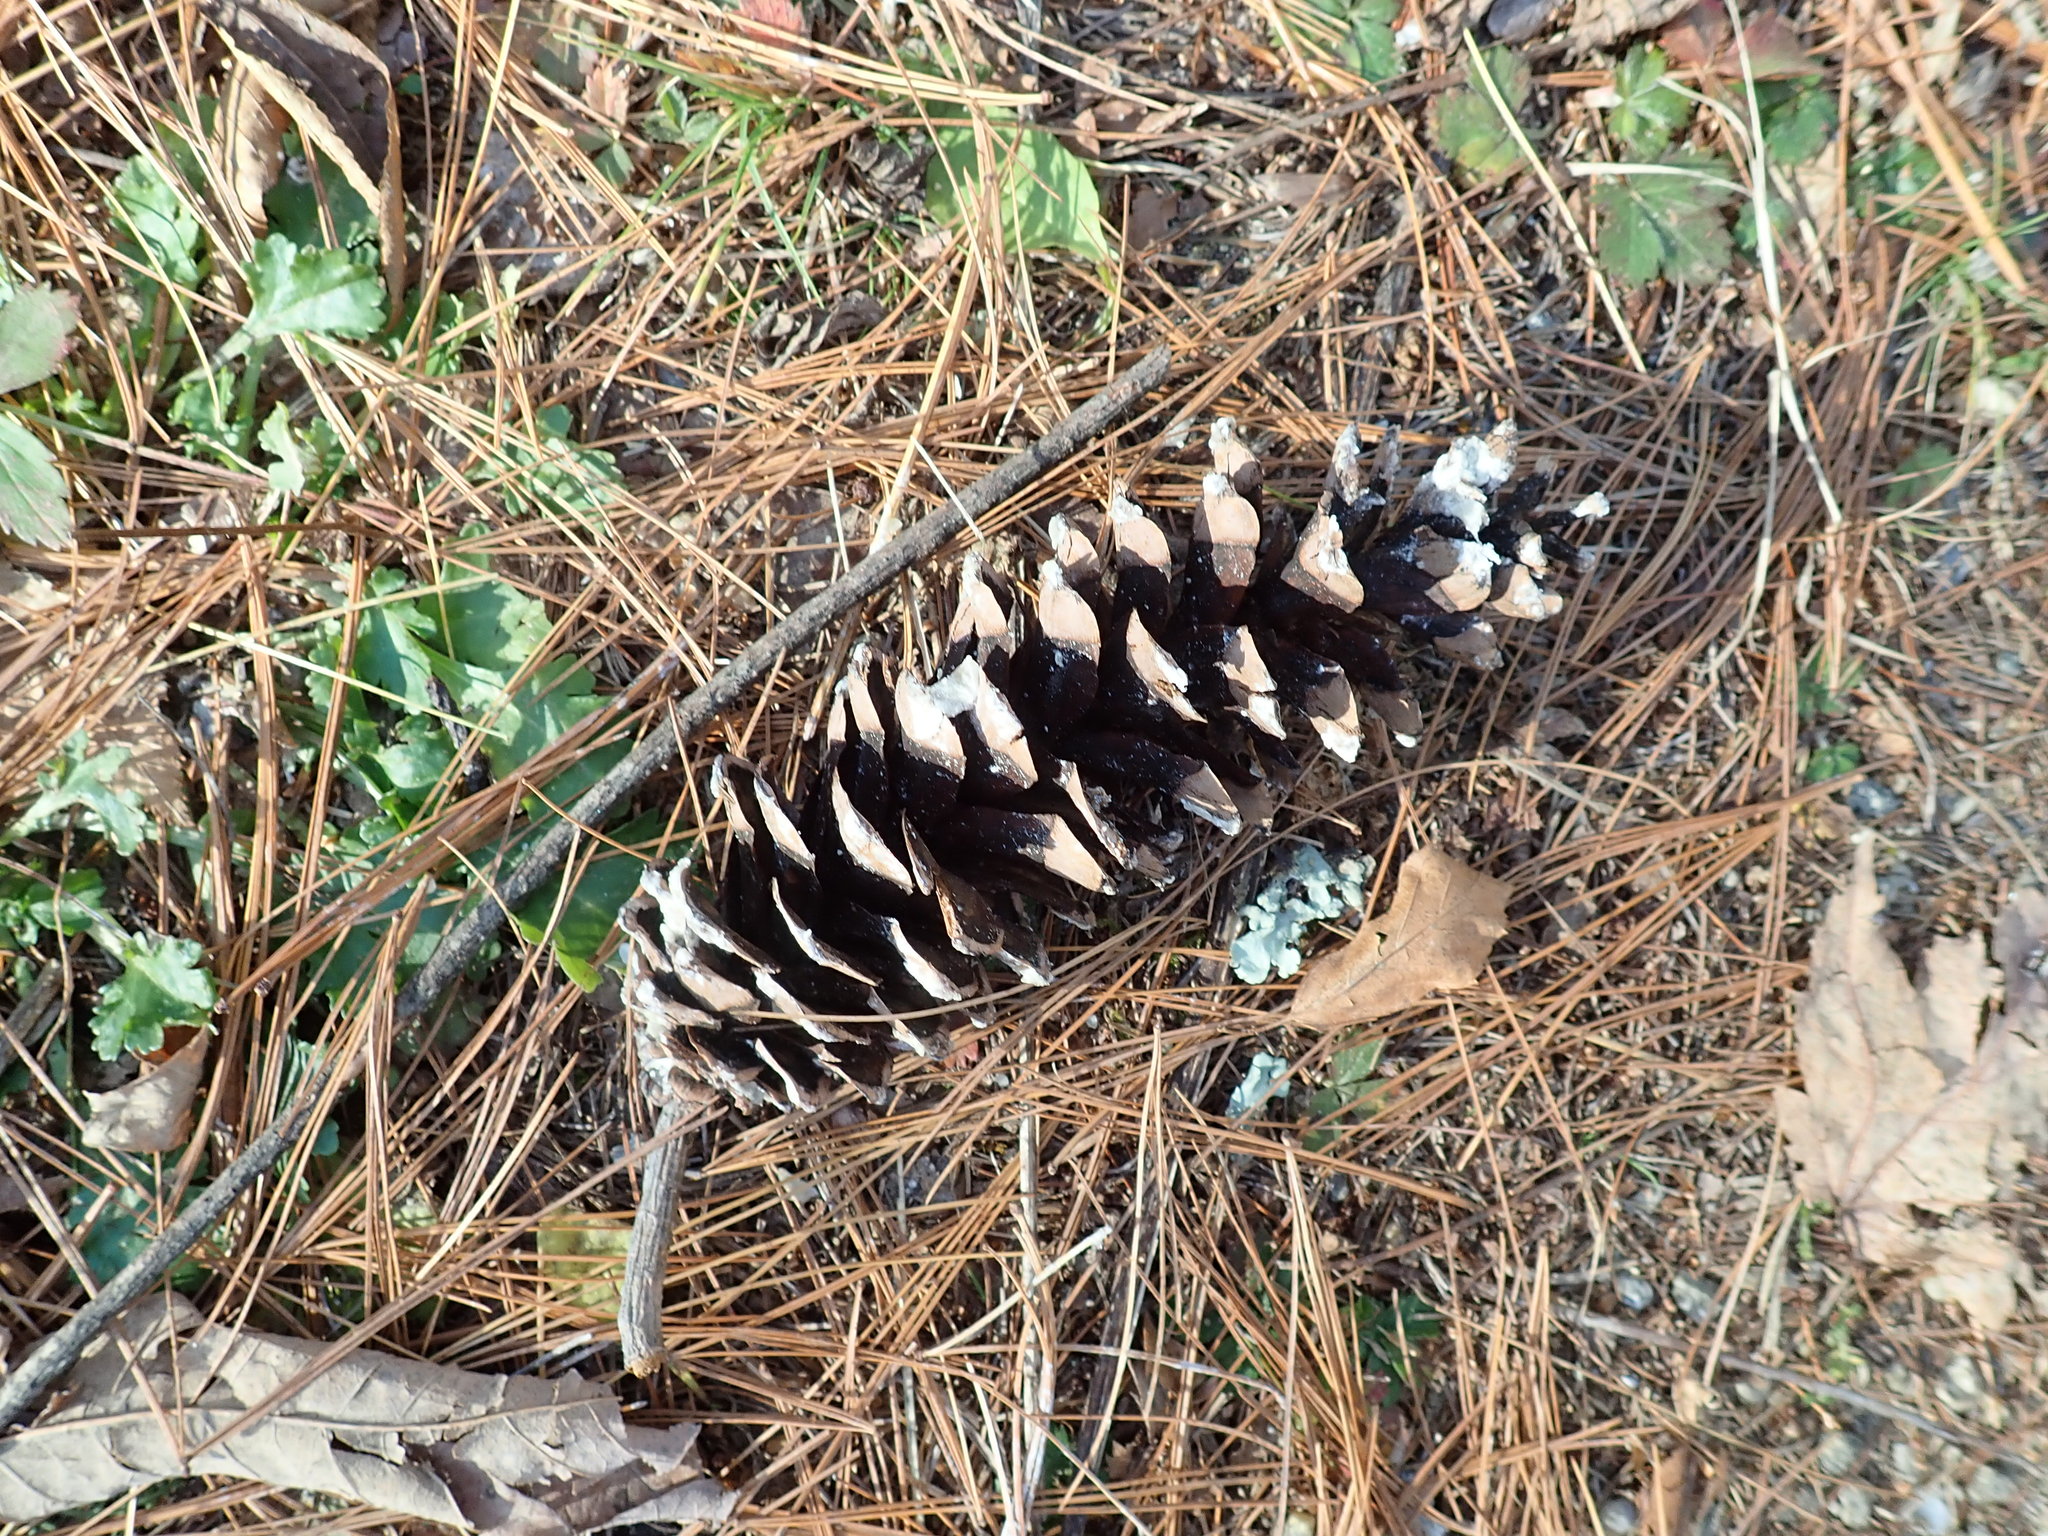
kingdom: Plantae
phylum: Tracheophyta
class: Pinopsida
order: Pinales
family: Pinaceae
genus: Pinus
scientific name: Pinus strobus
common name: Weymouth pine
